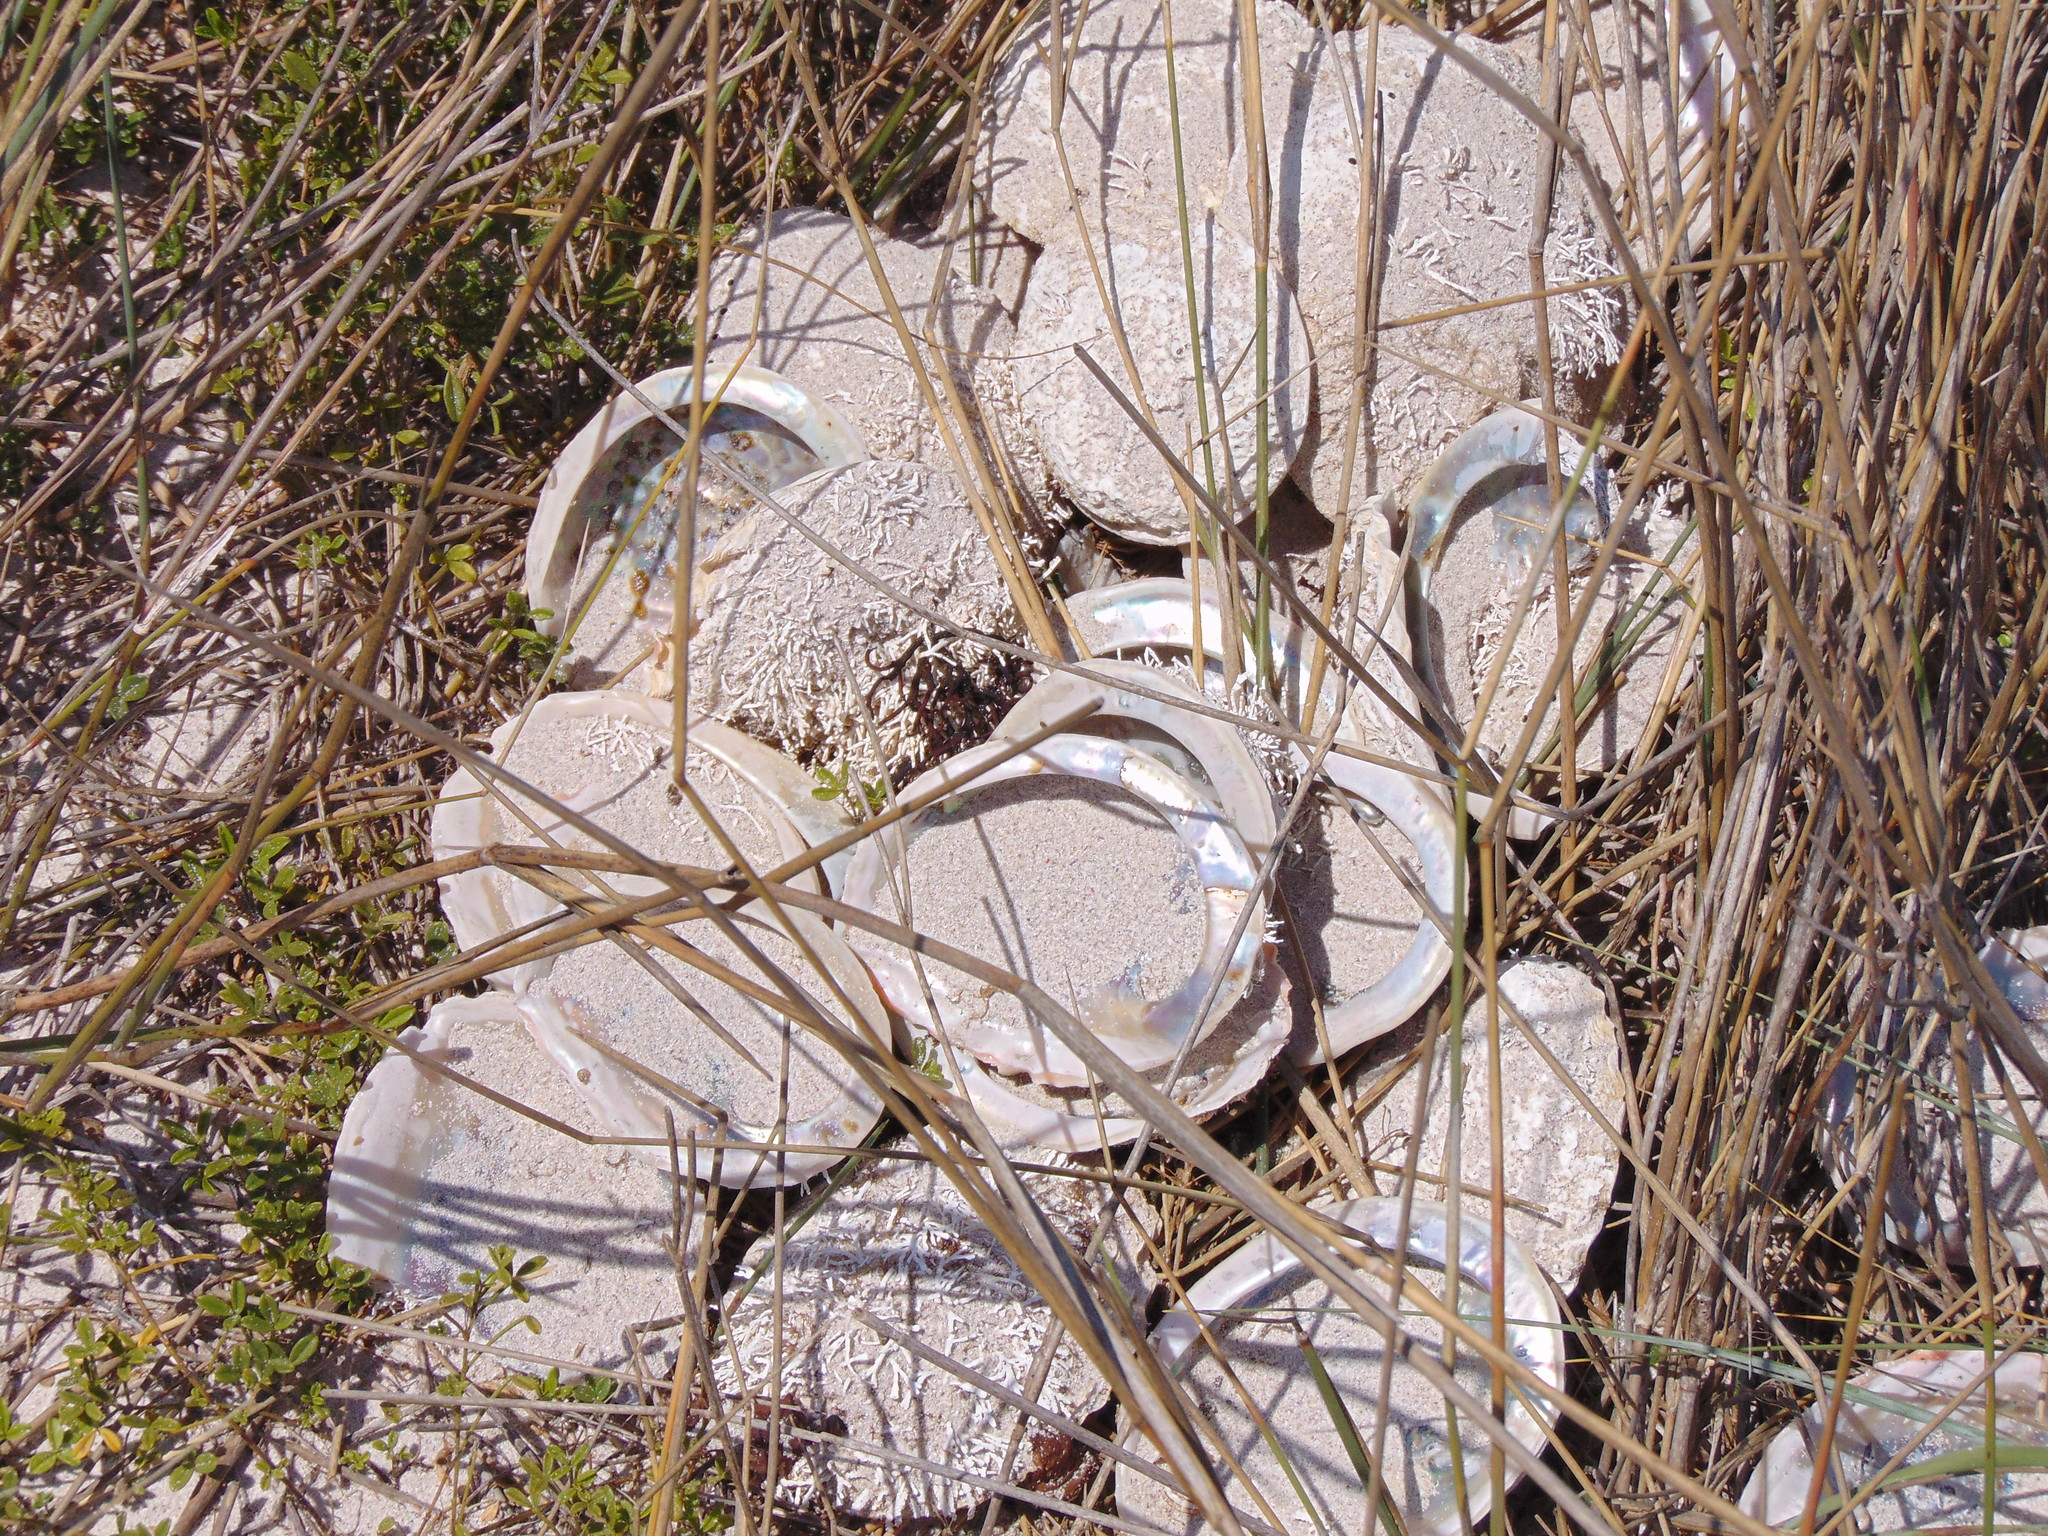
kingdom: Animalia
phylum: Mollusca
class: Gastropoda
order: Lepetellida
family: Haliotidae
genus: Haliotis
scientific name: Haliotis midae
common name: Perlemoen
